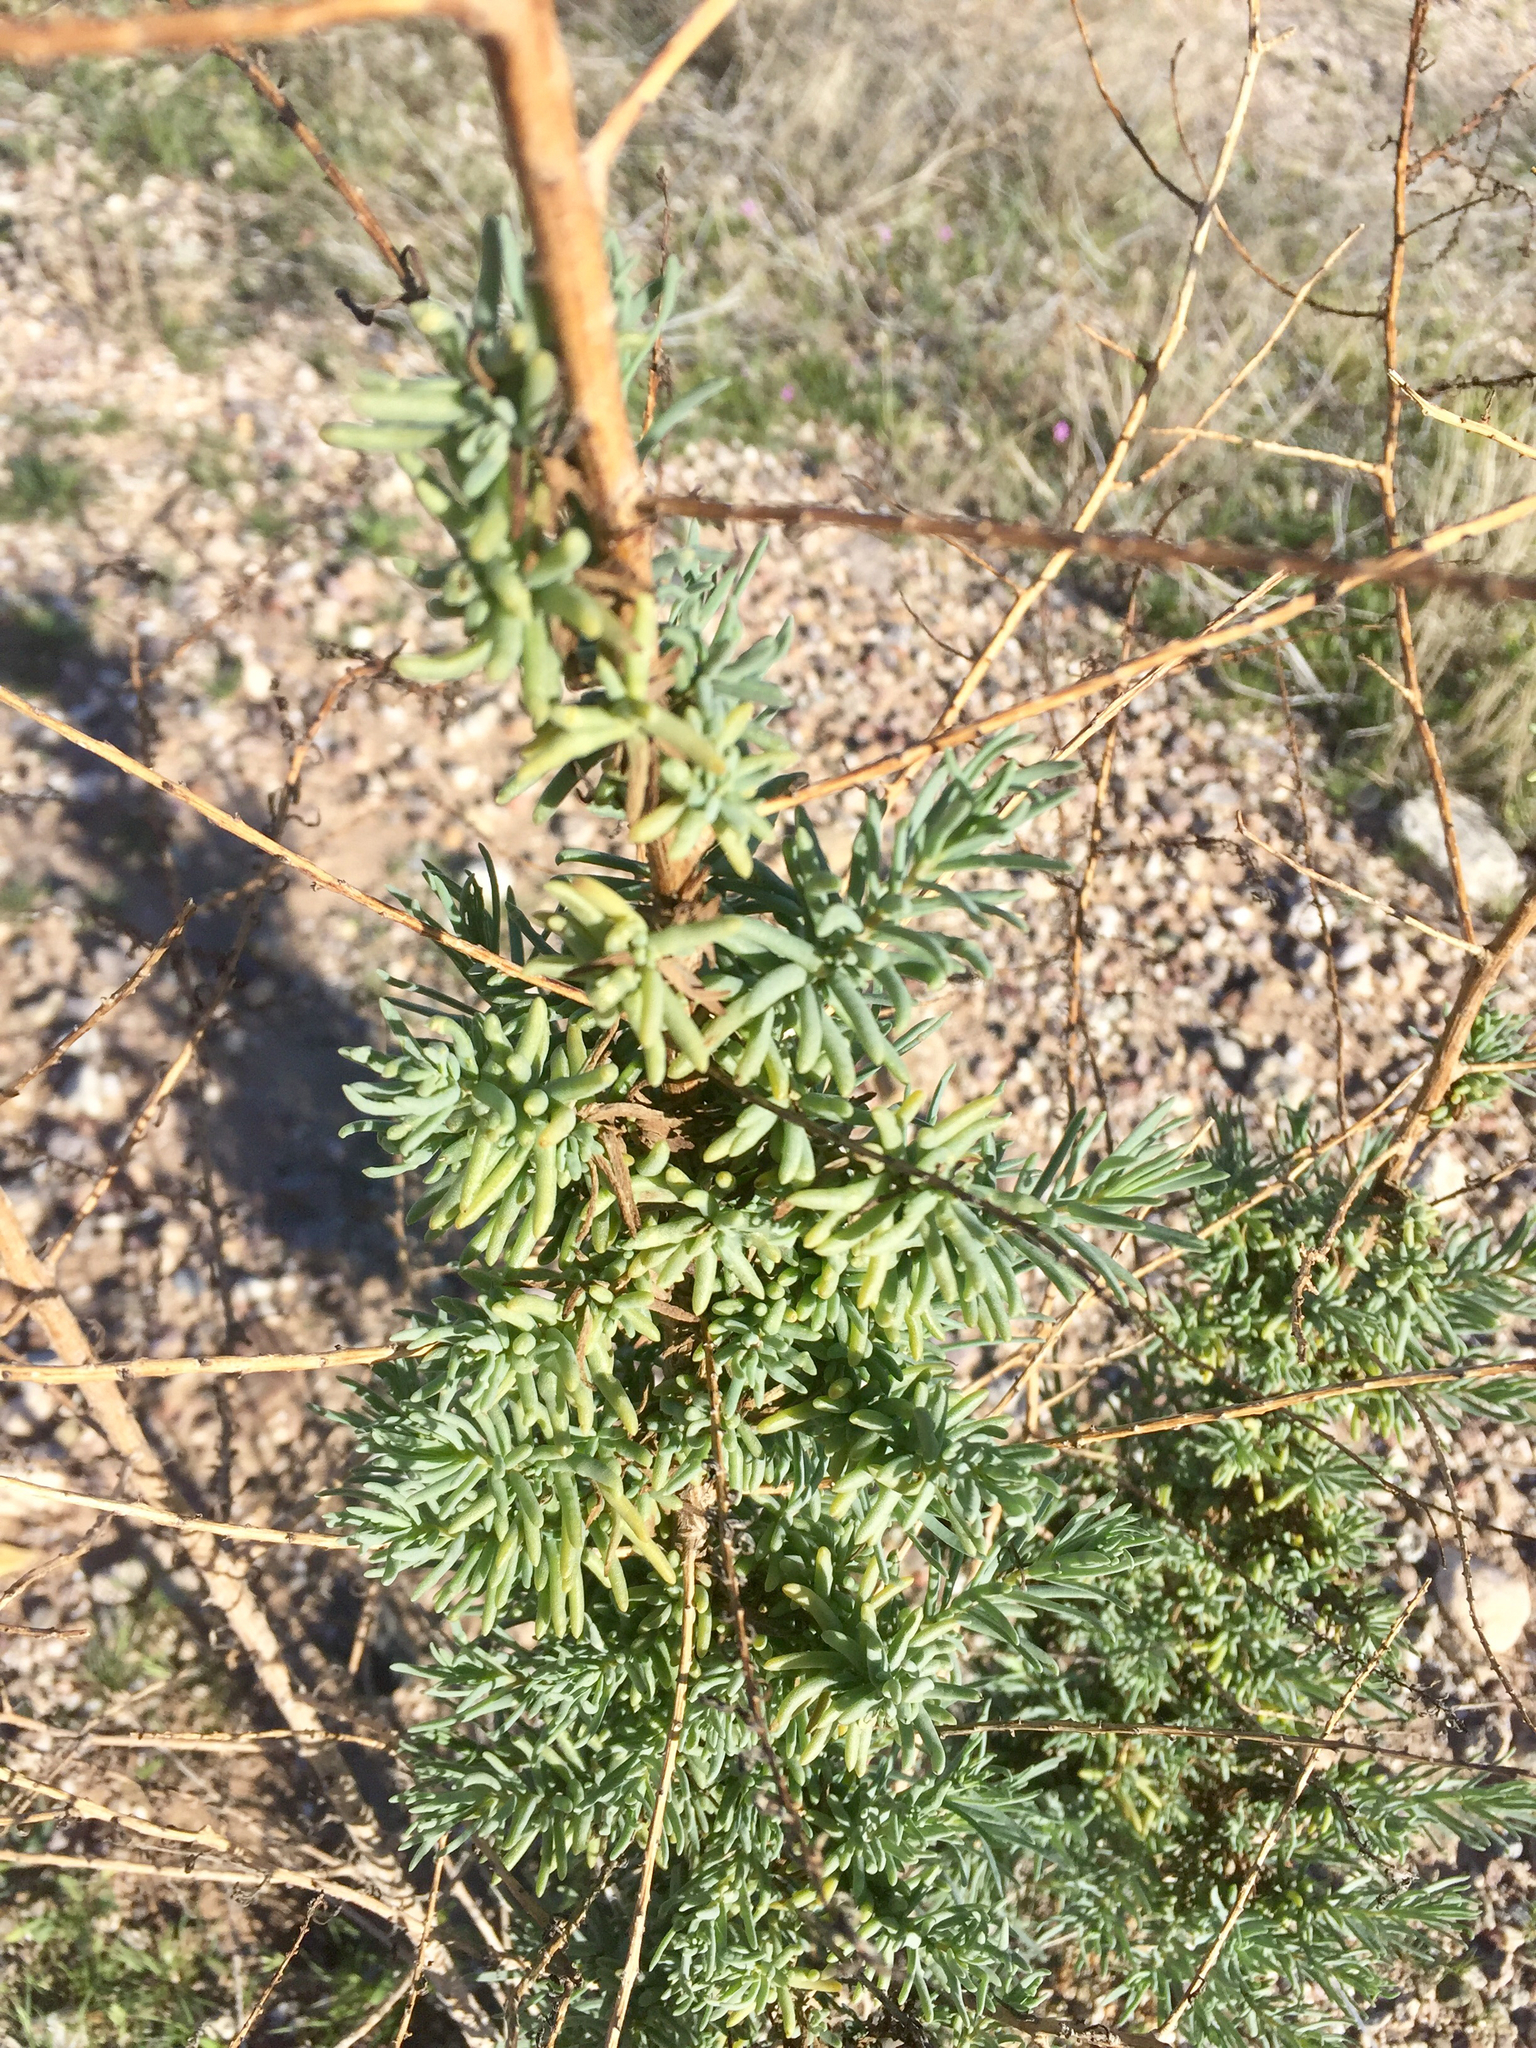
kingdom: Plantae
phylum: Tracheophyta
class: Magnoliopsida
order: Caryophyllales
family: Amaranthaceae
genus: Suaeda
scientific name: Suaeda nigra
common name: Bush seepweed
